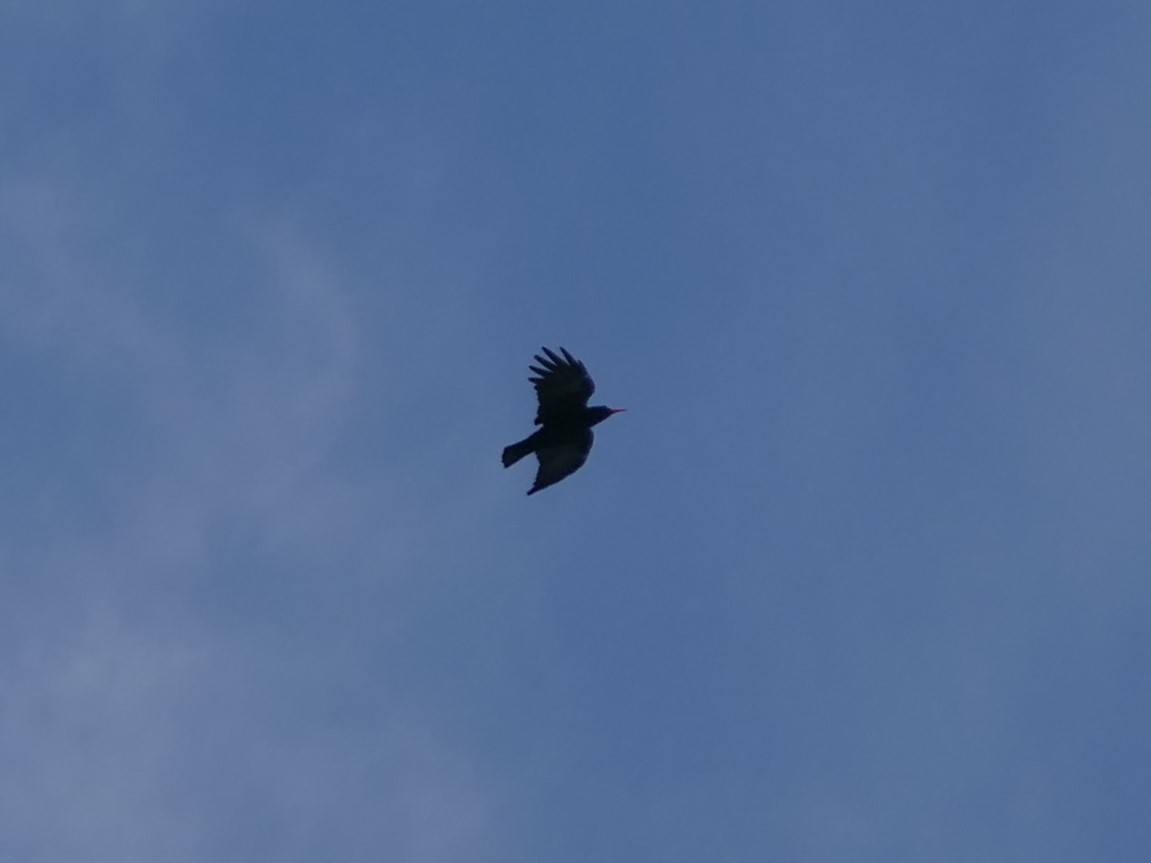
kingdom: Animalia
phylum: Chordata
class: Aves
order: Passeriformes
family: Corvidae
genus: Pyrrhocorax
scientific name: Pyrrhocorax pyrrhocorax
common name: Red-billed chough
